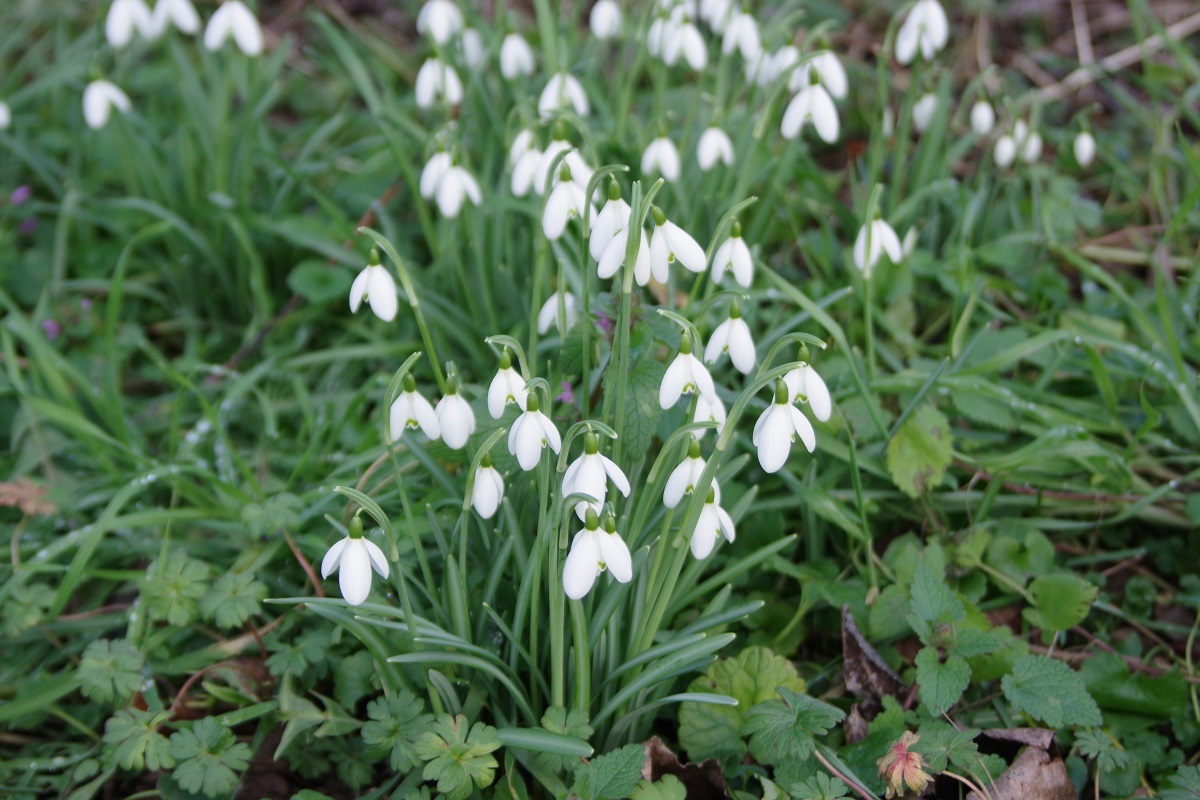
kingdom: Plantae
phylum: Tracheophyta
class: Liliopsida
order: Asparagales
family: Amaryllidaceae
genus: Galanthus
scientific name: Galanthus nivalis
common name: Snowdrop
